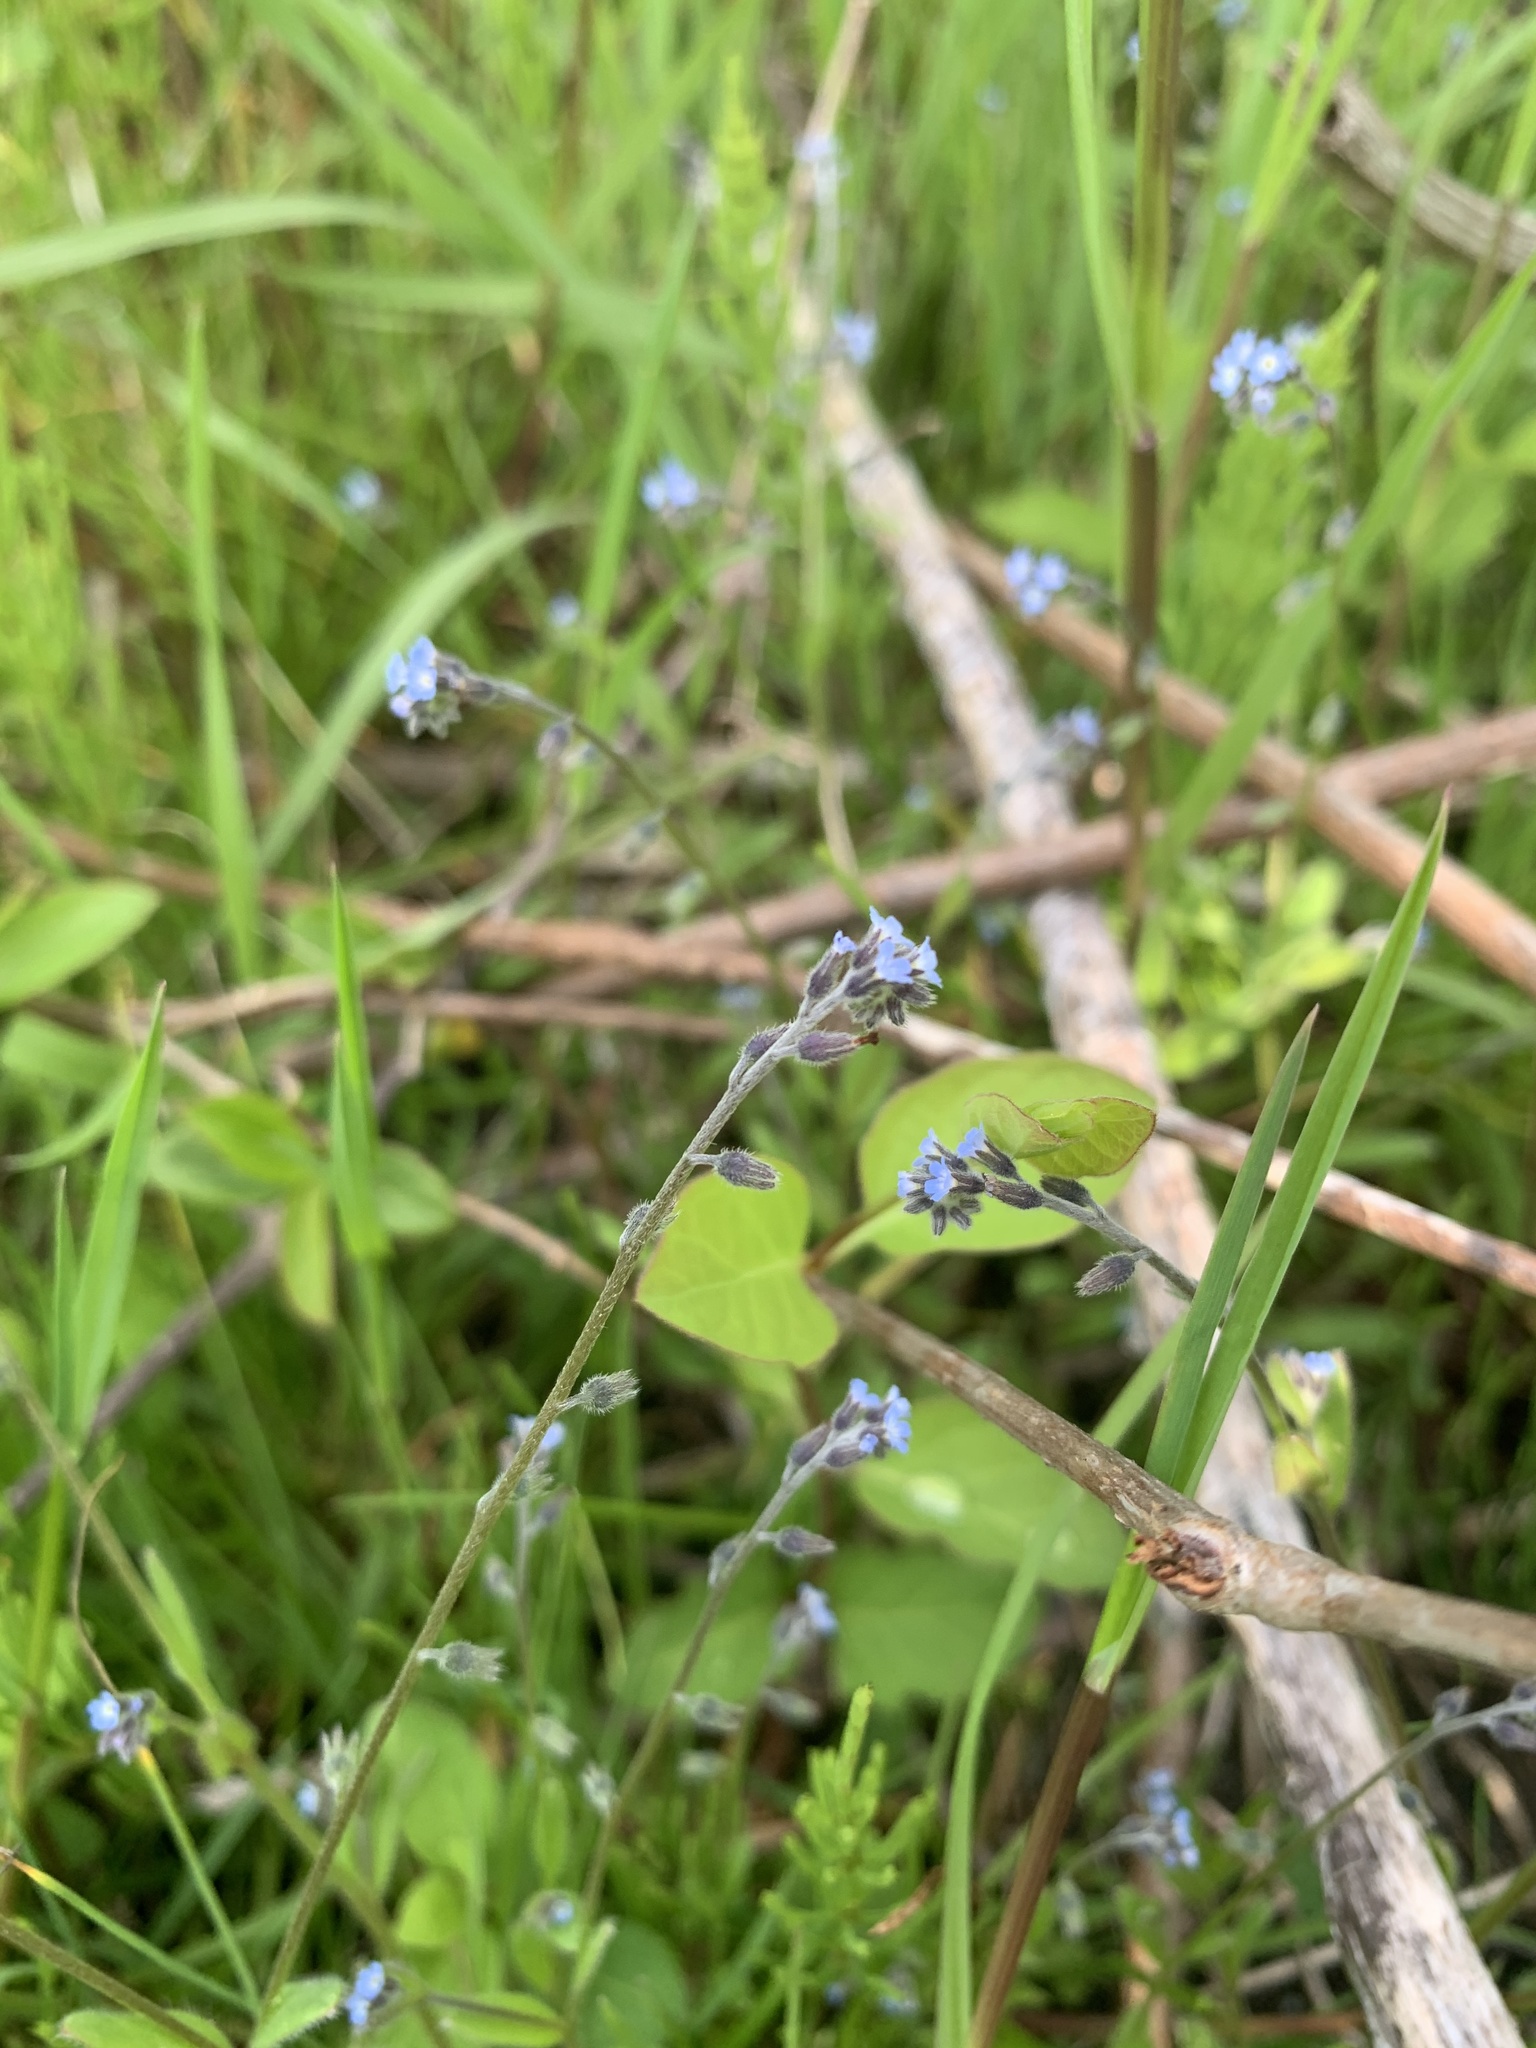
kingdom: Plantae
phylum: Tracheophyta
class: Magnoliopsida
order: Boraginales
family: Boraginaceae
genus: Myosotis
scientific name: Myosotis ramosissima
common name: Early forget-me-not
